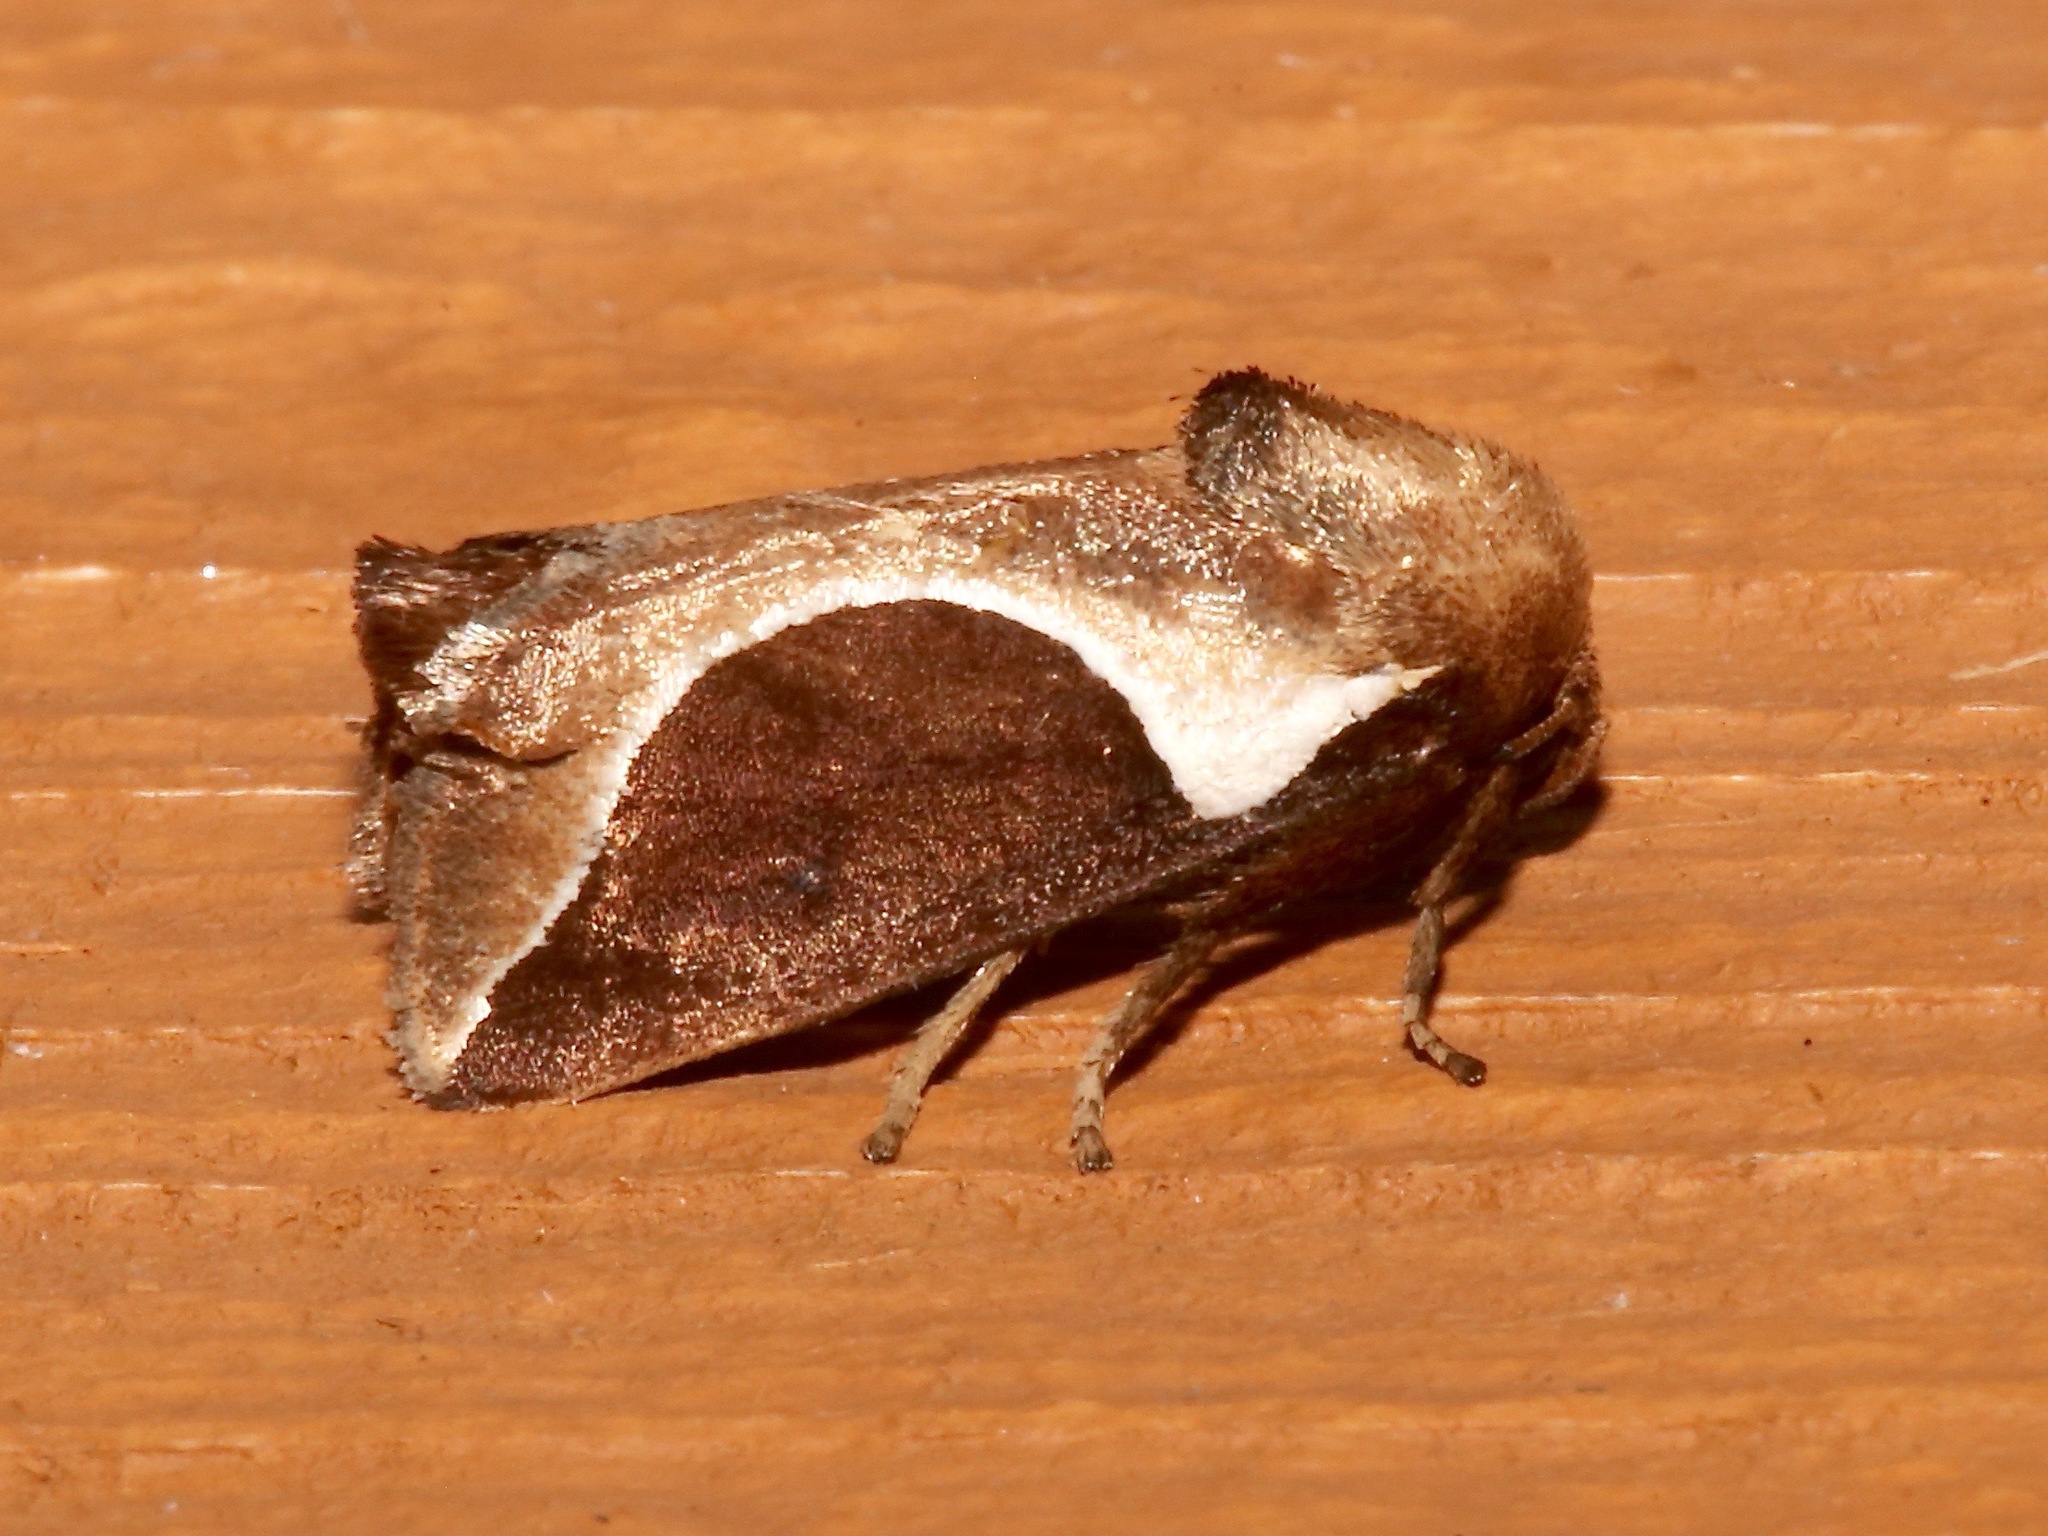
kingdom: Animalia
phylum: Arthropoda
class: Insecta
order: Lepidoptera
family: Limacodidae
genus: Prolimacodes
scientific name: Prolimacodes badia
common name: Skiff moth
